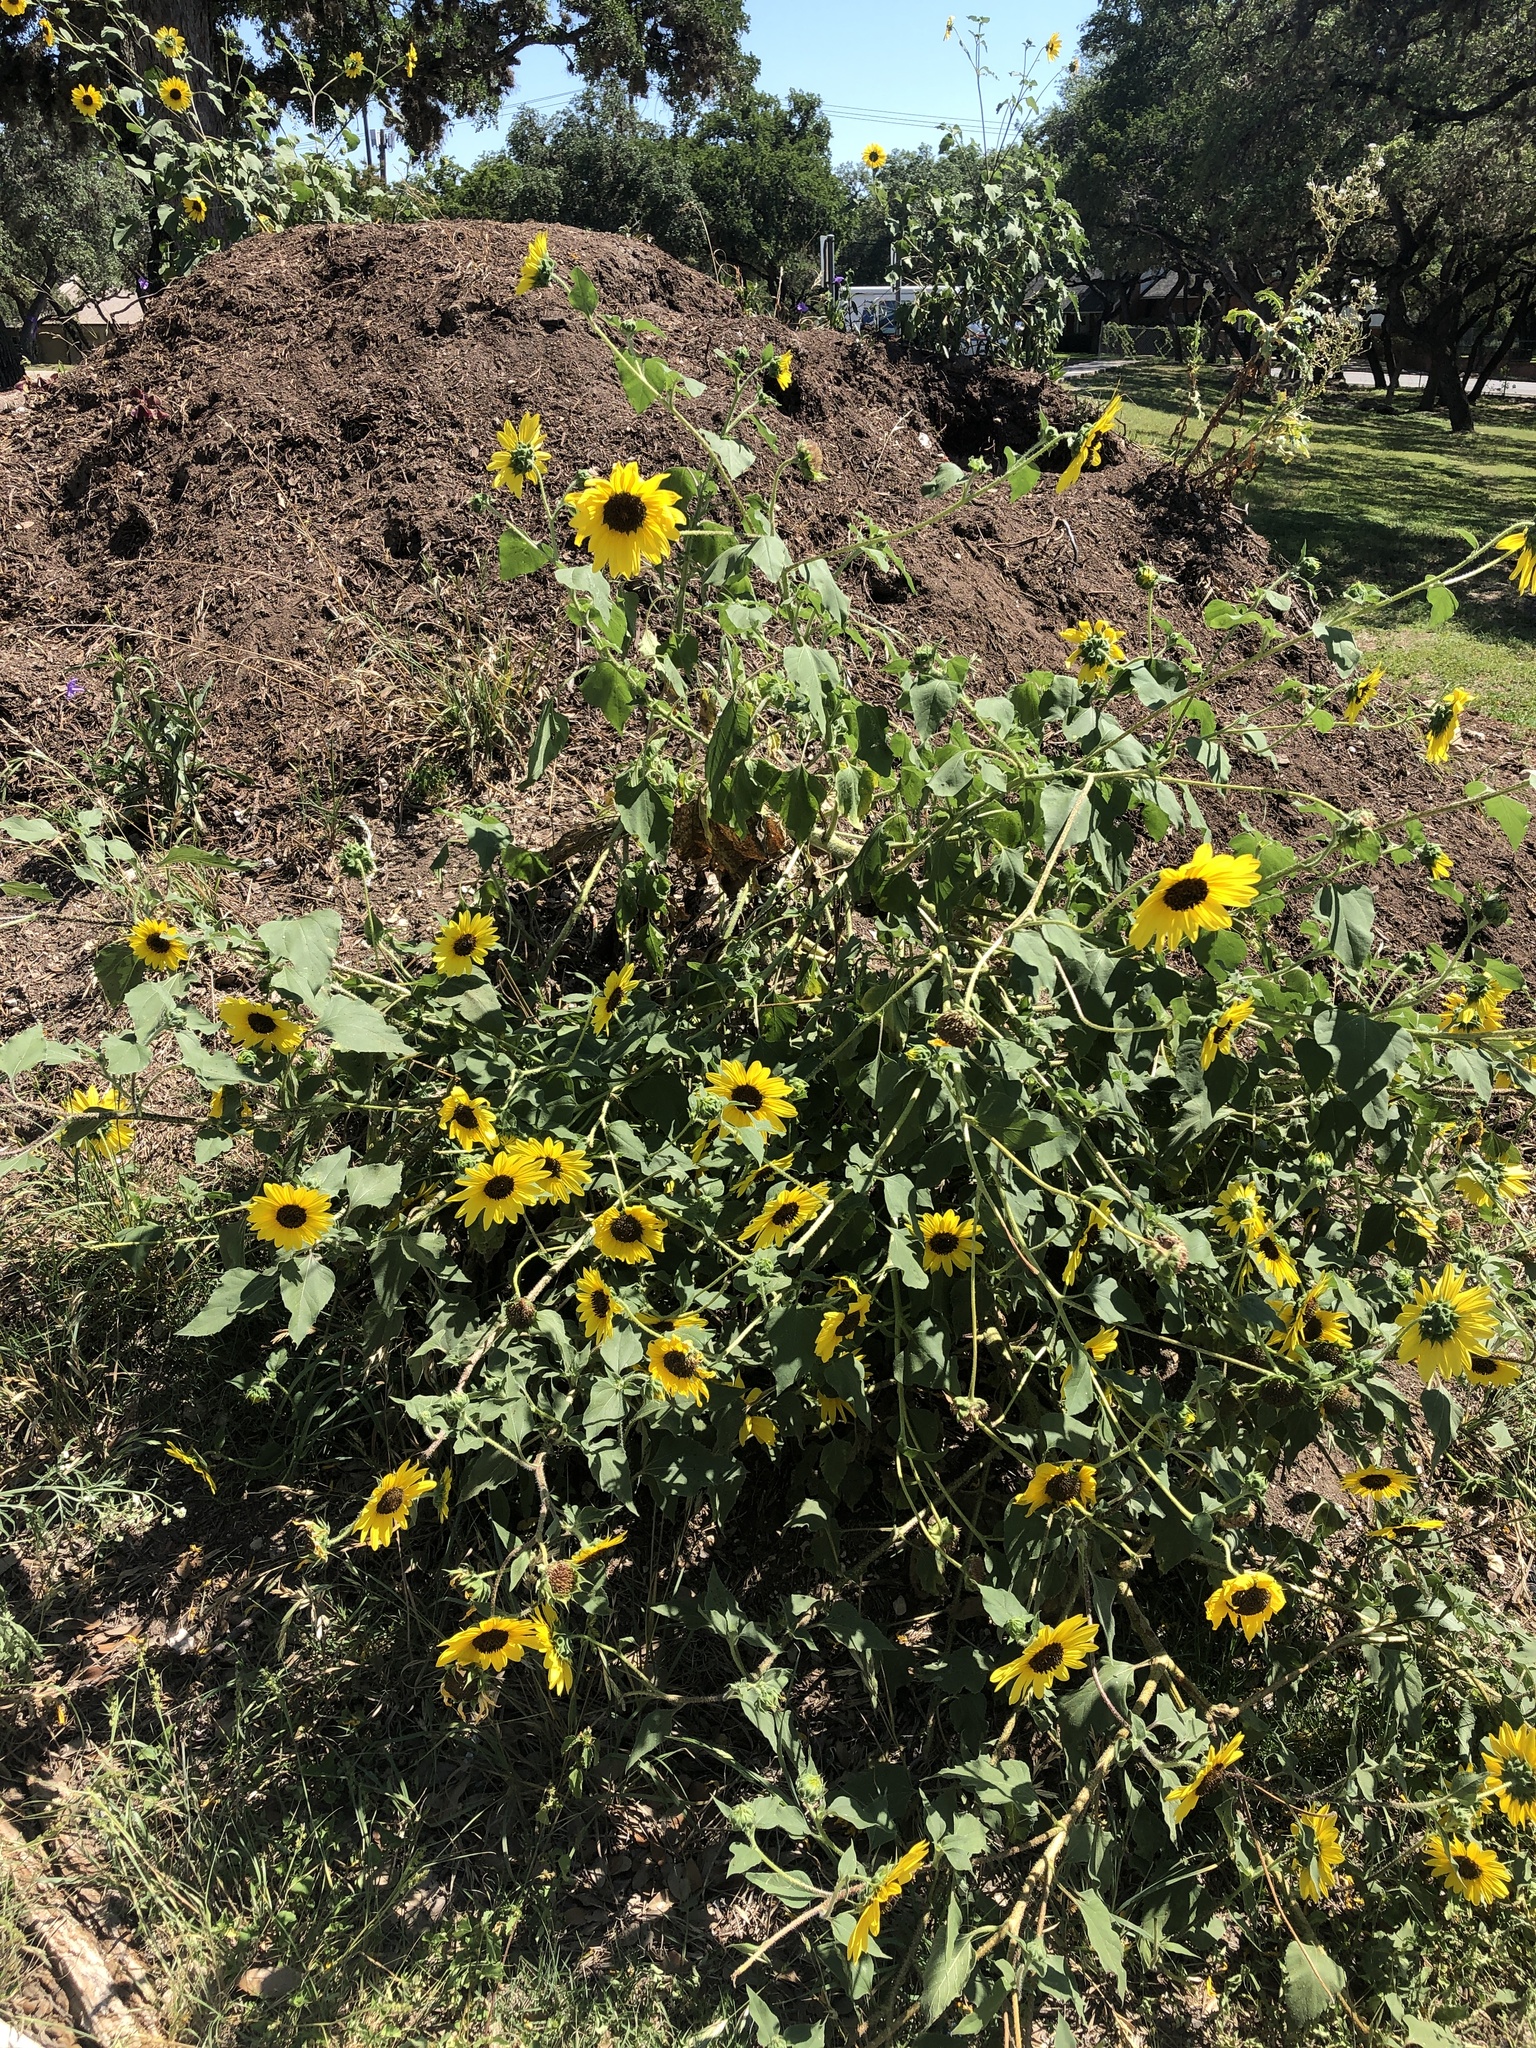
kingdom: Plantae
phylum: Tracheophyta
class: Magnoliopsida
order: Asterales
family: Asteraceae
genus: Helianthus
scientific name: Helianthus annuus
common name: Sunflower
